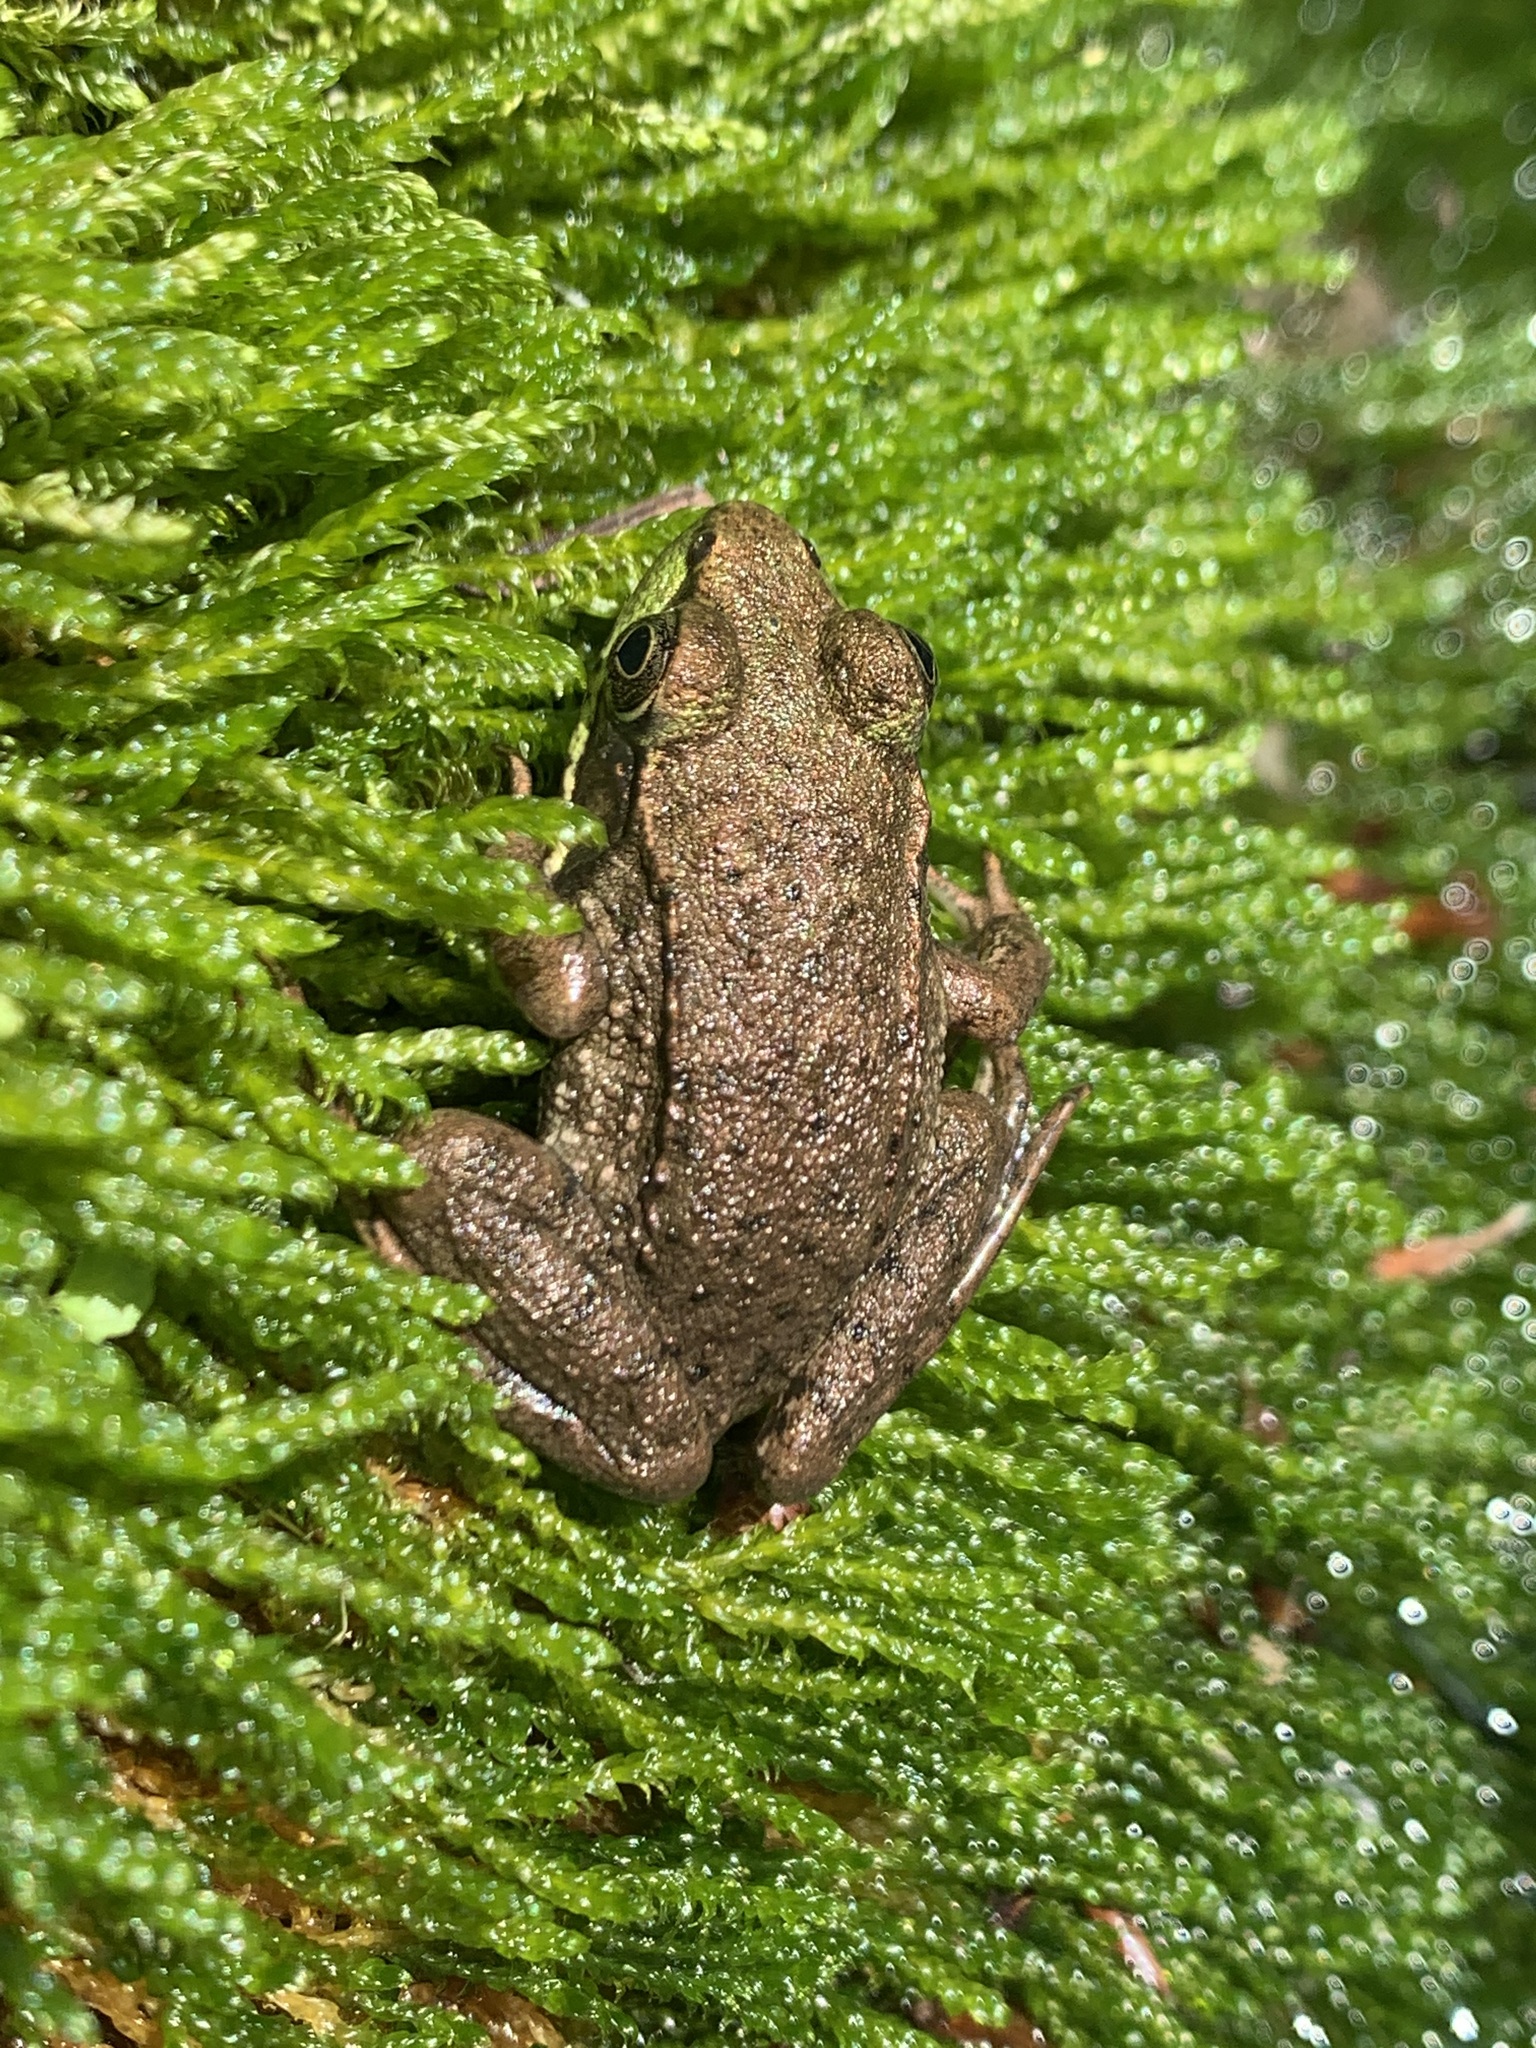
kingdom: Animalia
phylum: Chordata
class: Amphibia
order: Anura
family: Ranidae
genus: Lithobates
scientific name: Lithobates clamitans
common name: Green frog
